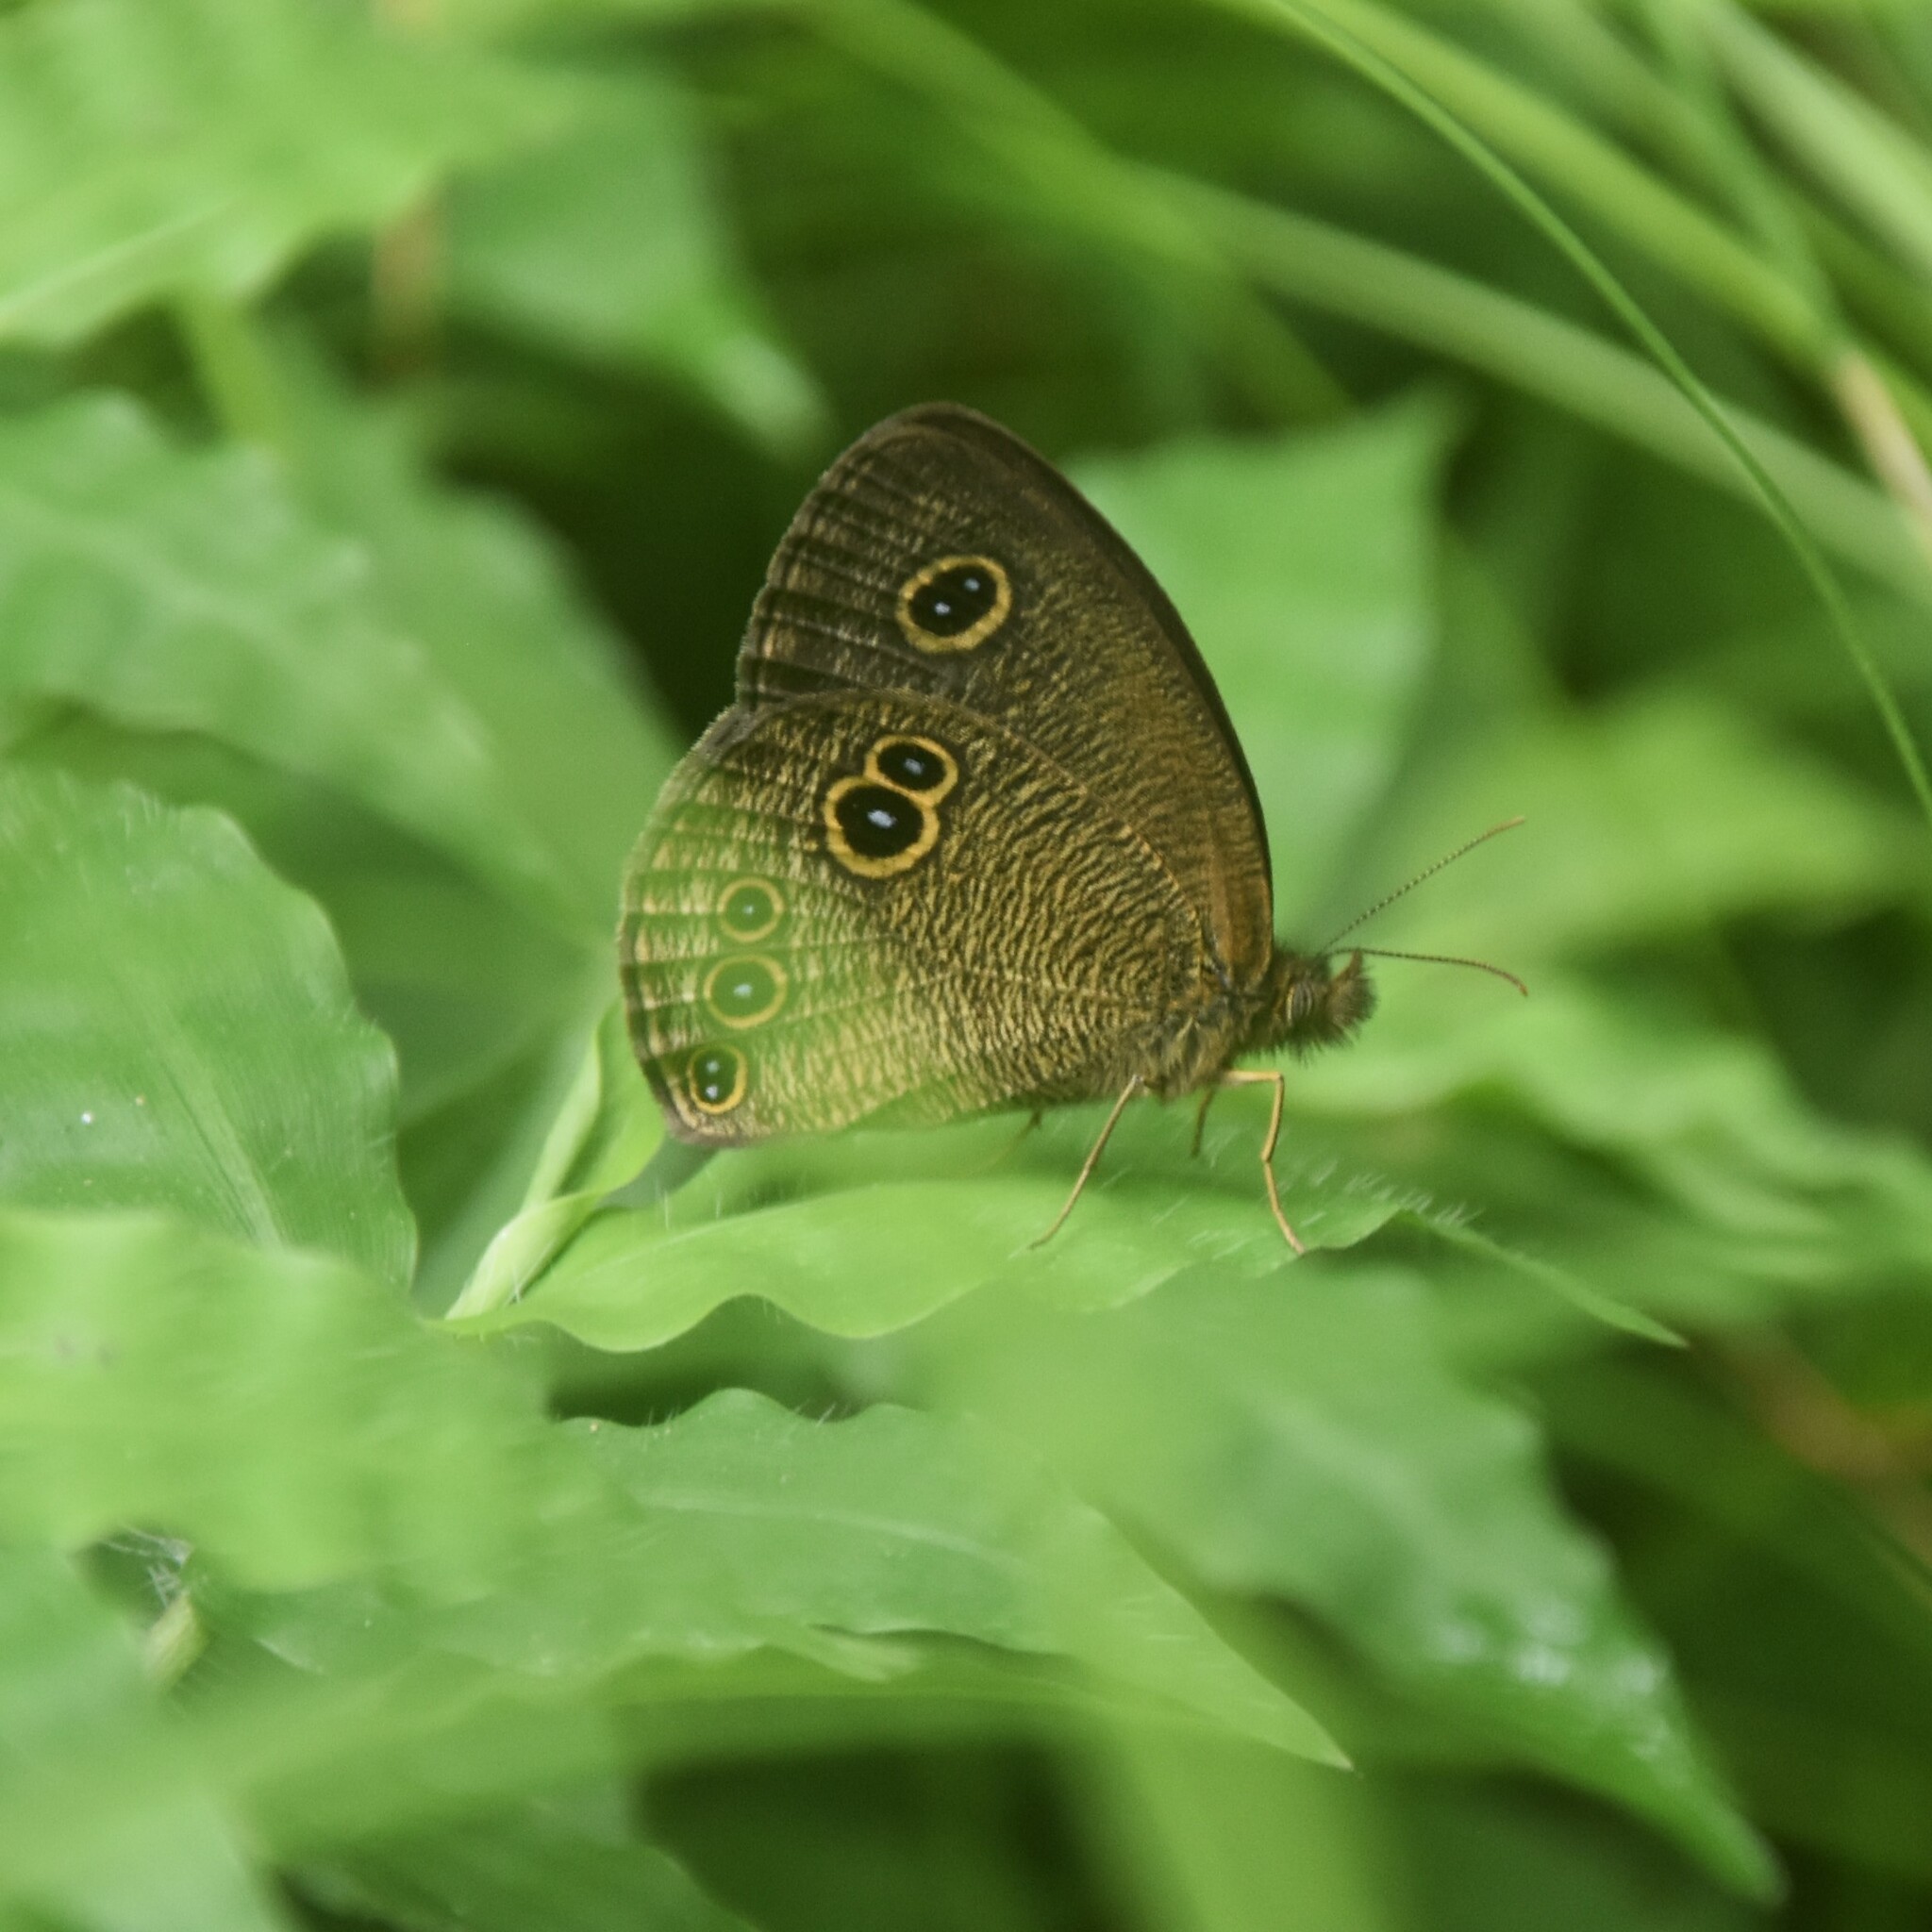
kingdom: Animalia
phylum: Arthropoda
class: Insecta
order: Lepidoptera
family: Nymphalidae
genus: Ypthima
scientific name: Ypthima nikaea
